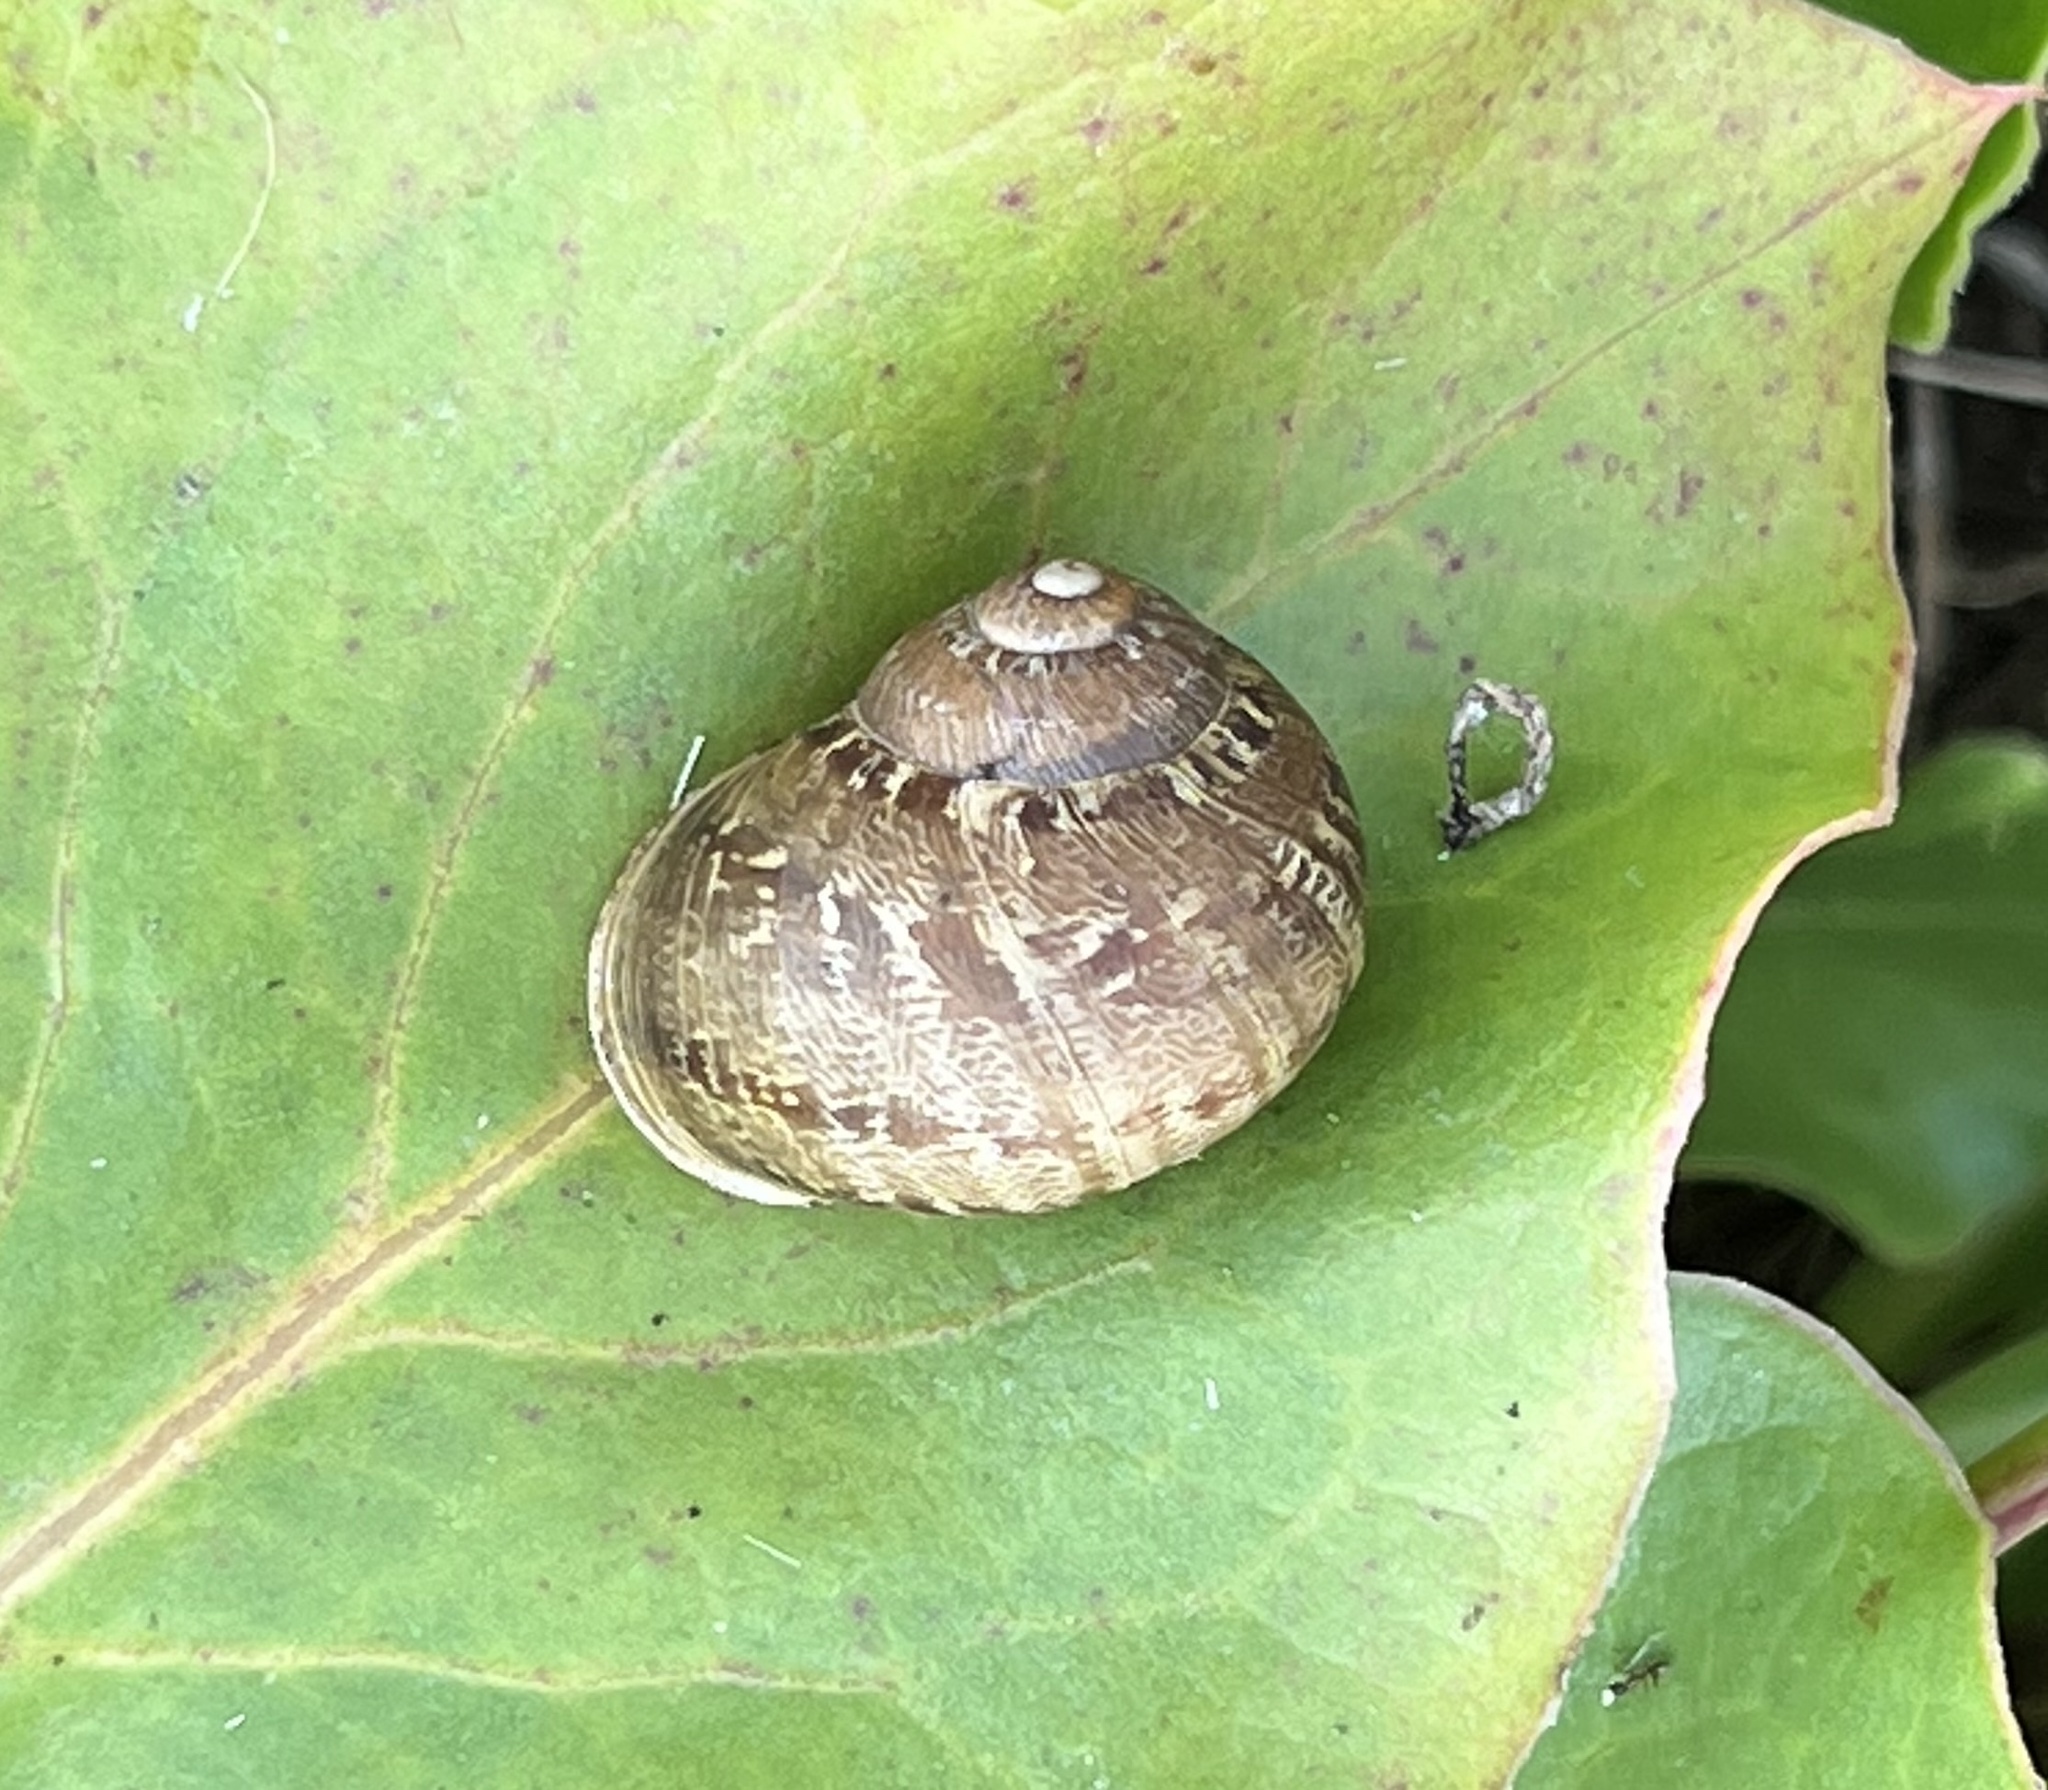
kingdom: Animalia
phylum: Mollusca
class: Gastropoda
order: Stylommatophora
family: Helicidae
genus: Cornu
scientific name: Cornu aspersum
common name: Brown garden snail
